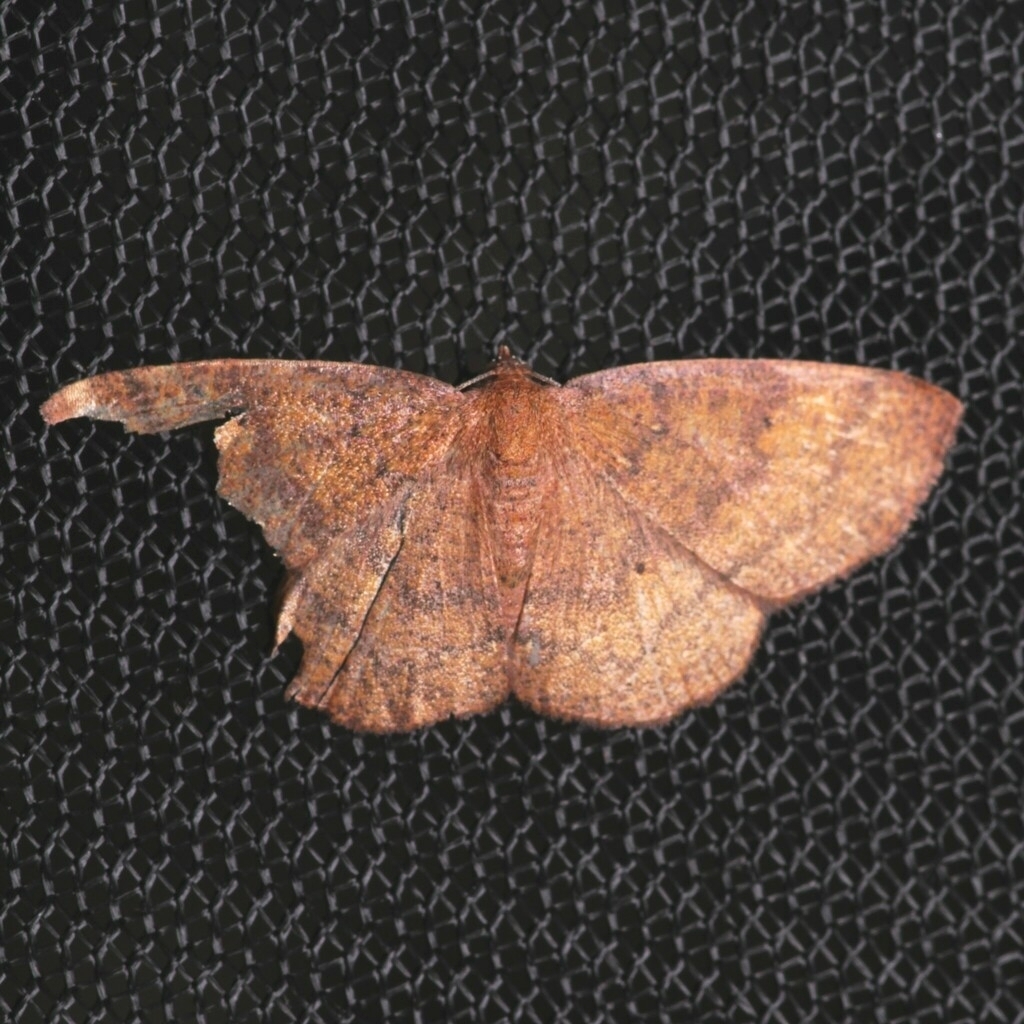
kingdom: Animalia
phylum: Arthropoda
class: Insecta
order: Lepidoptera
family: Geometridae
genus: Ilexia
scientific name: Ilexia intractata
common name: Black-dotted ruddy moth
